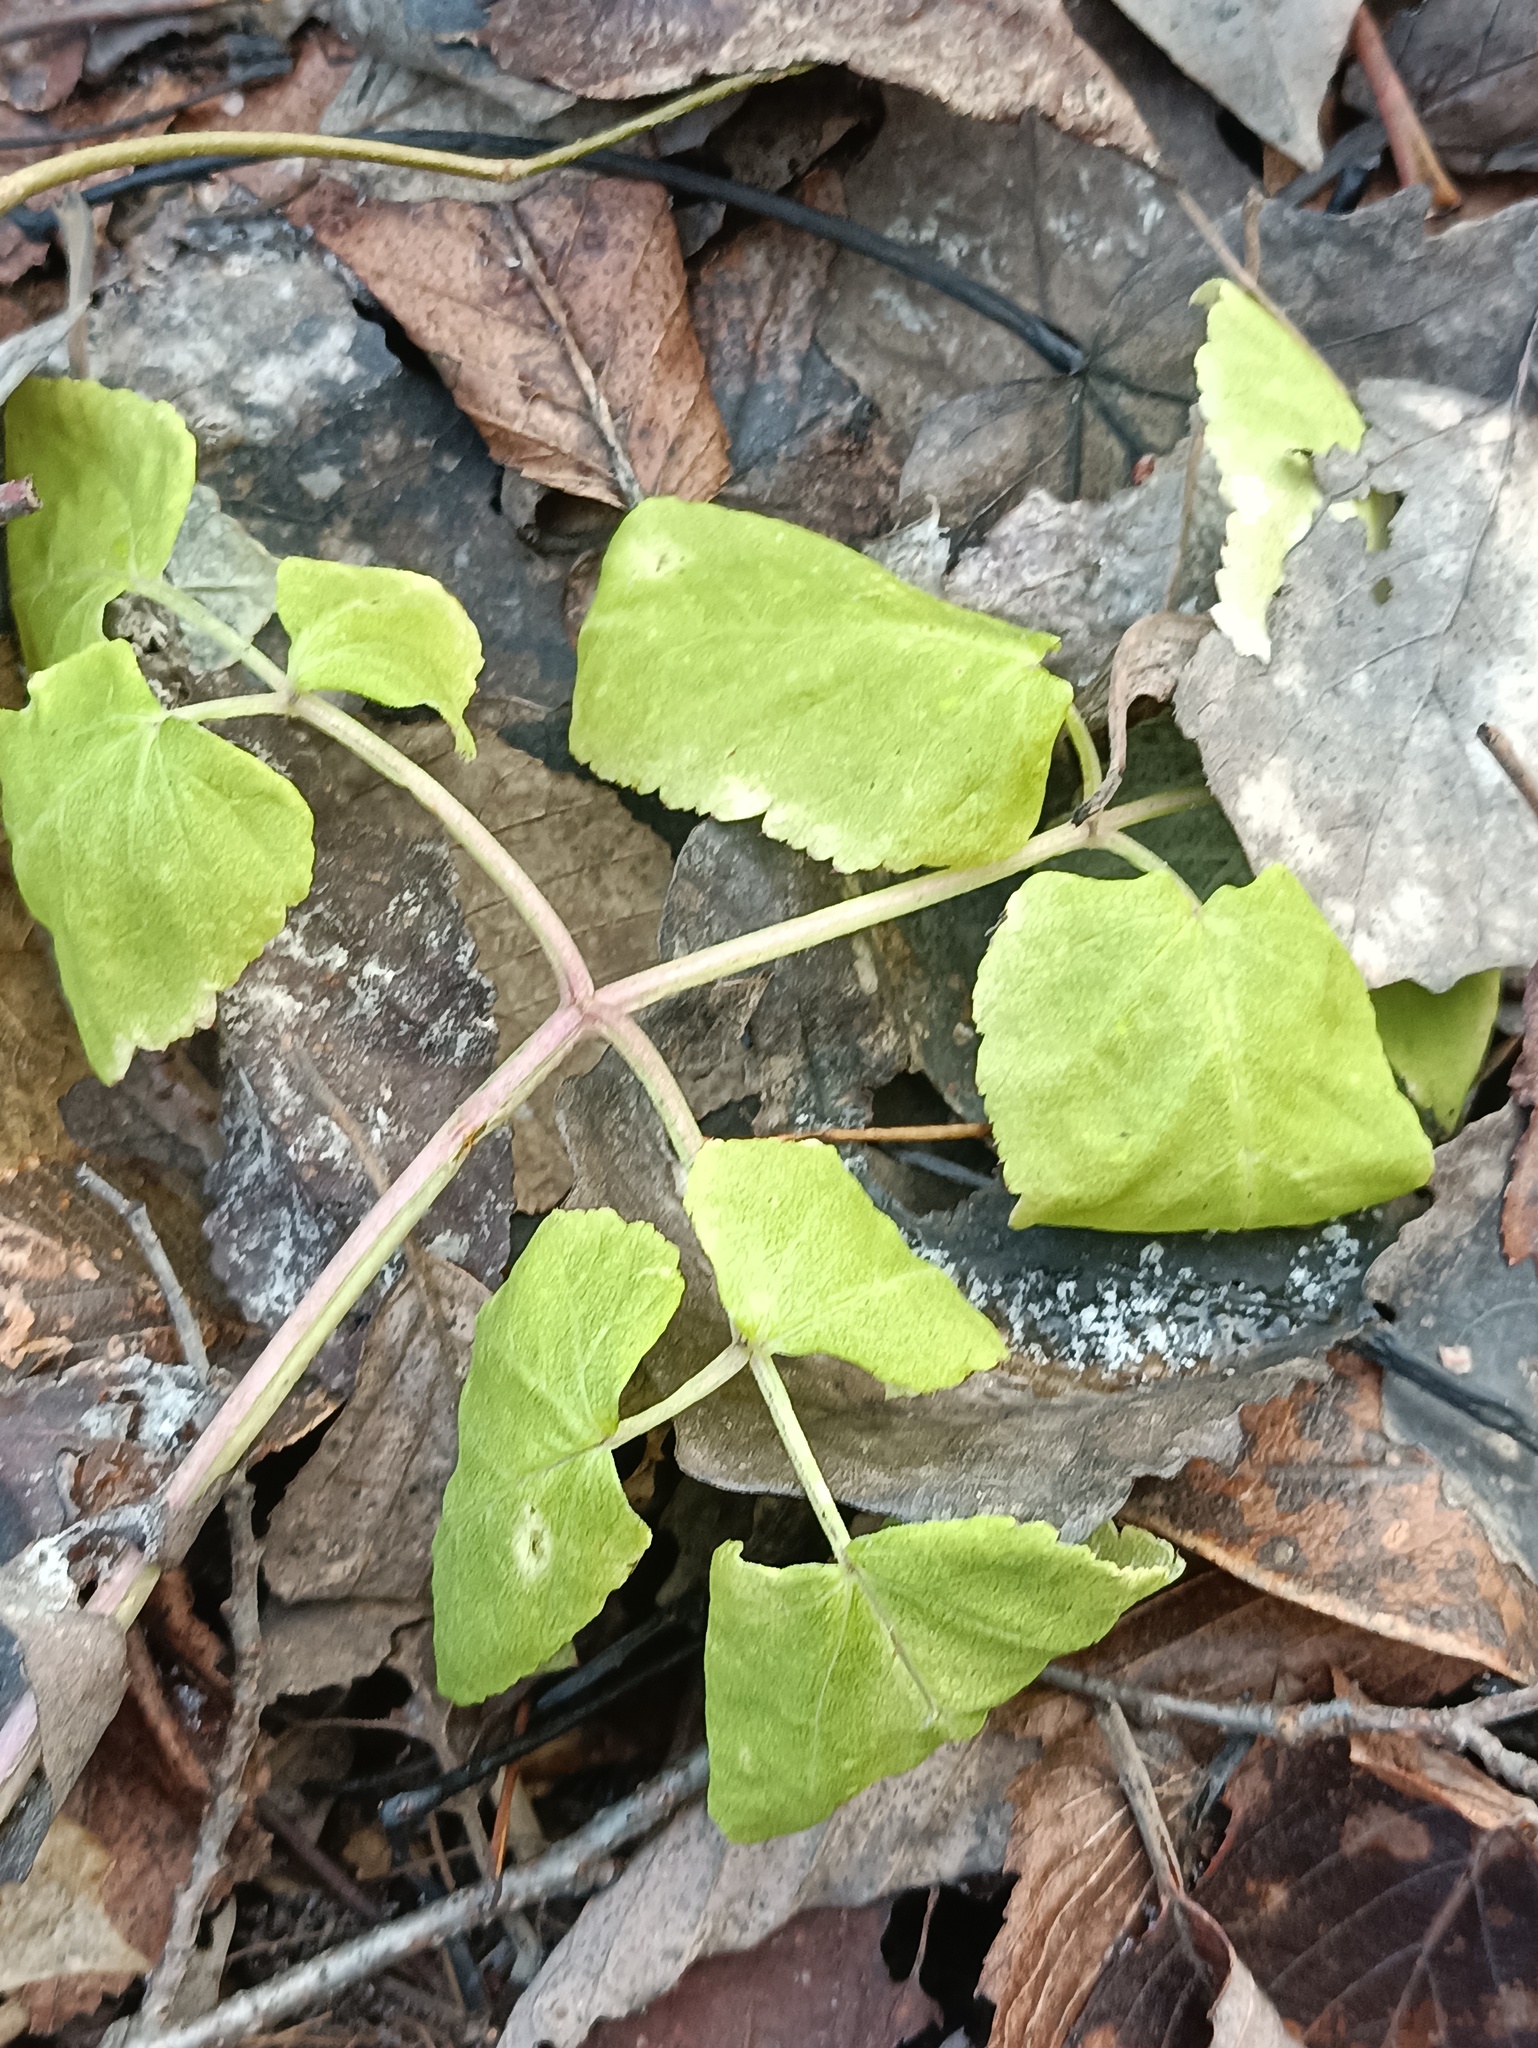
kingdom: Plantae
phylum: Tracheophyta
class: Magnoliopsida
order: Apiales
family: Apiaceae
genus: Aegopodium
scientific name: Aegopodium podagraria
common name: Ground-elder
